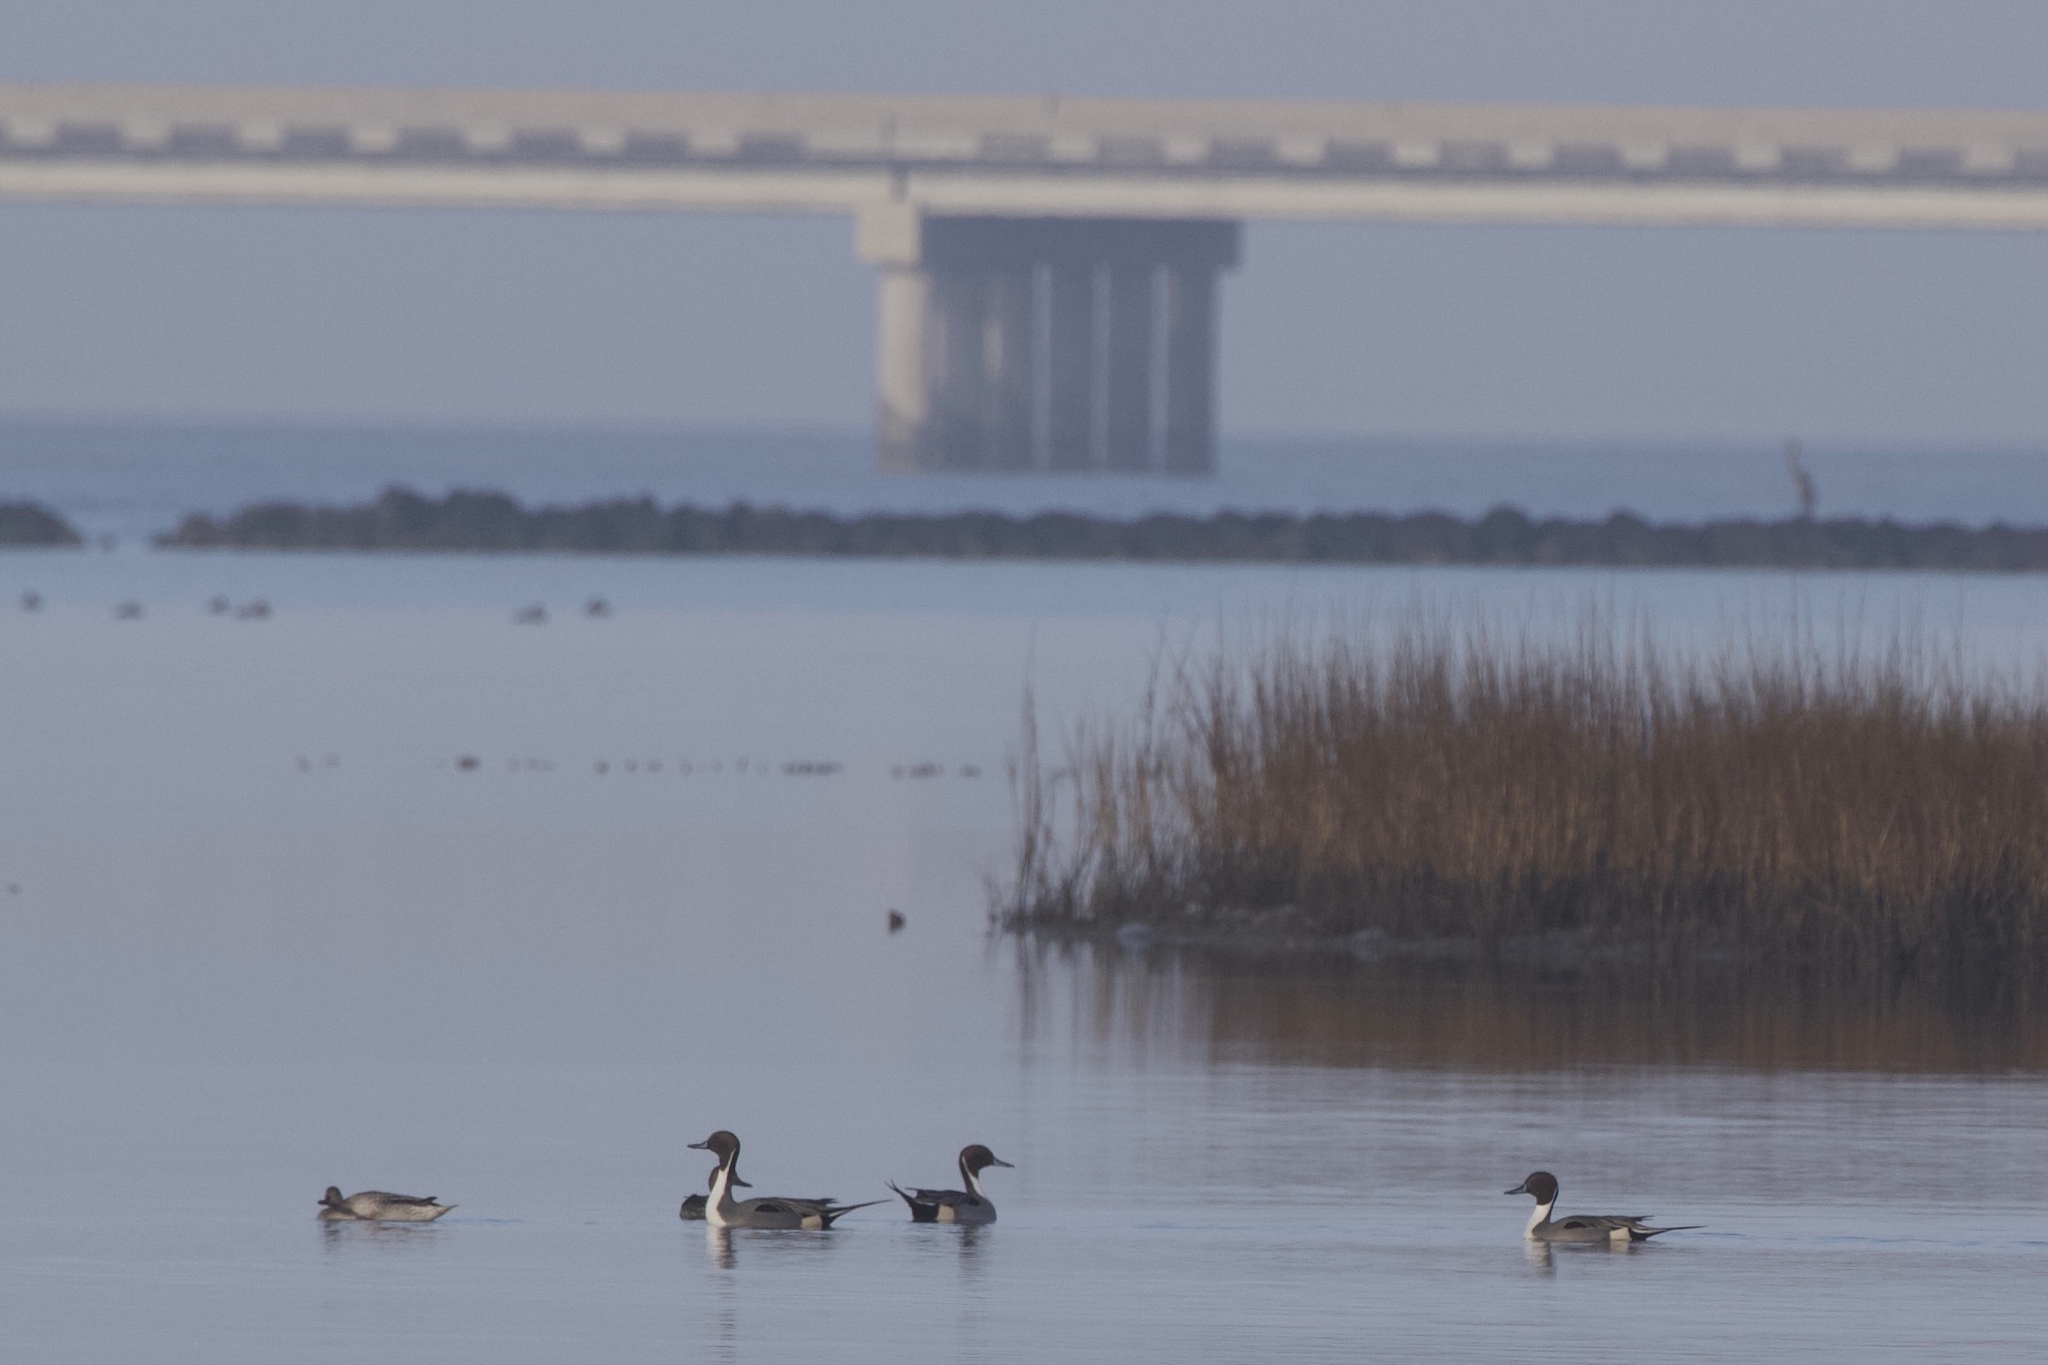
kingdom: Animalia
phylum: Chordata
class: Aves
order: Anseriformes
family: Anatidae
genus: Anas
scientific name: Anas acuta
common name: Northern pintail
